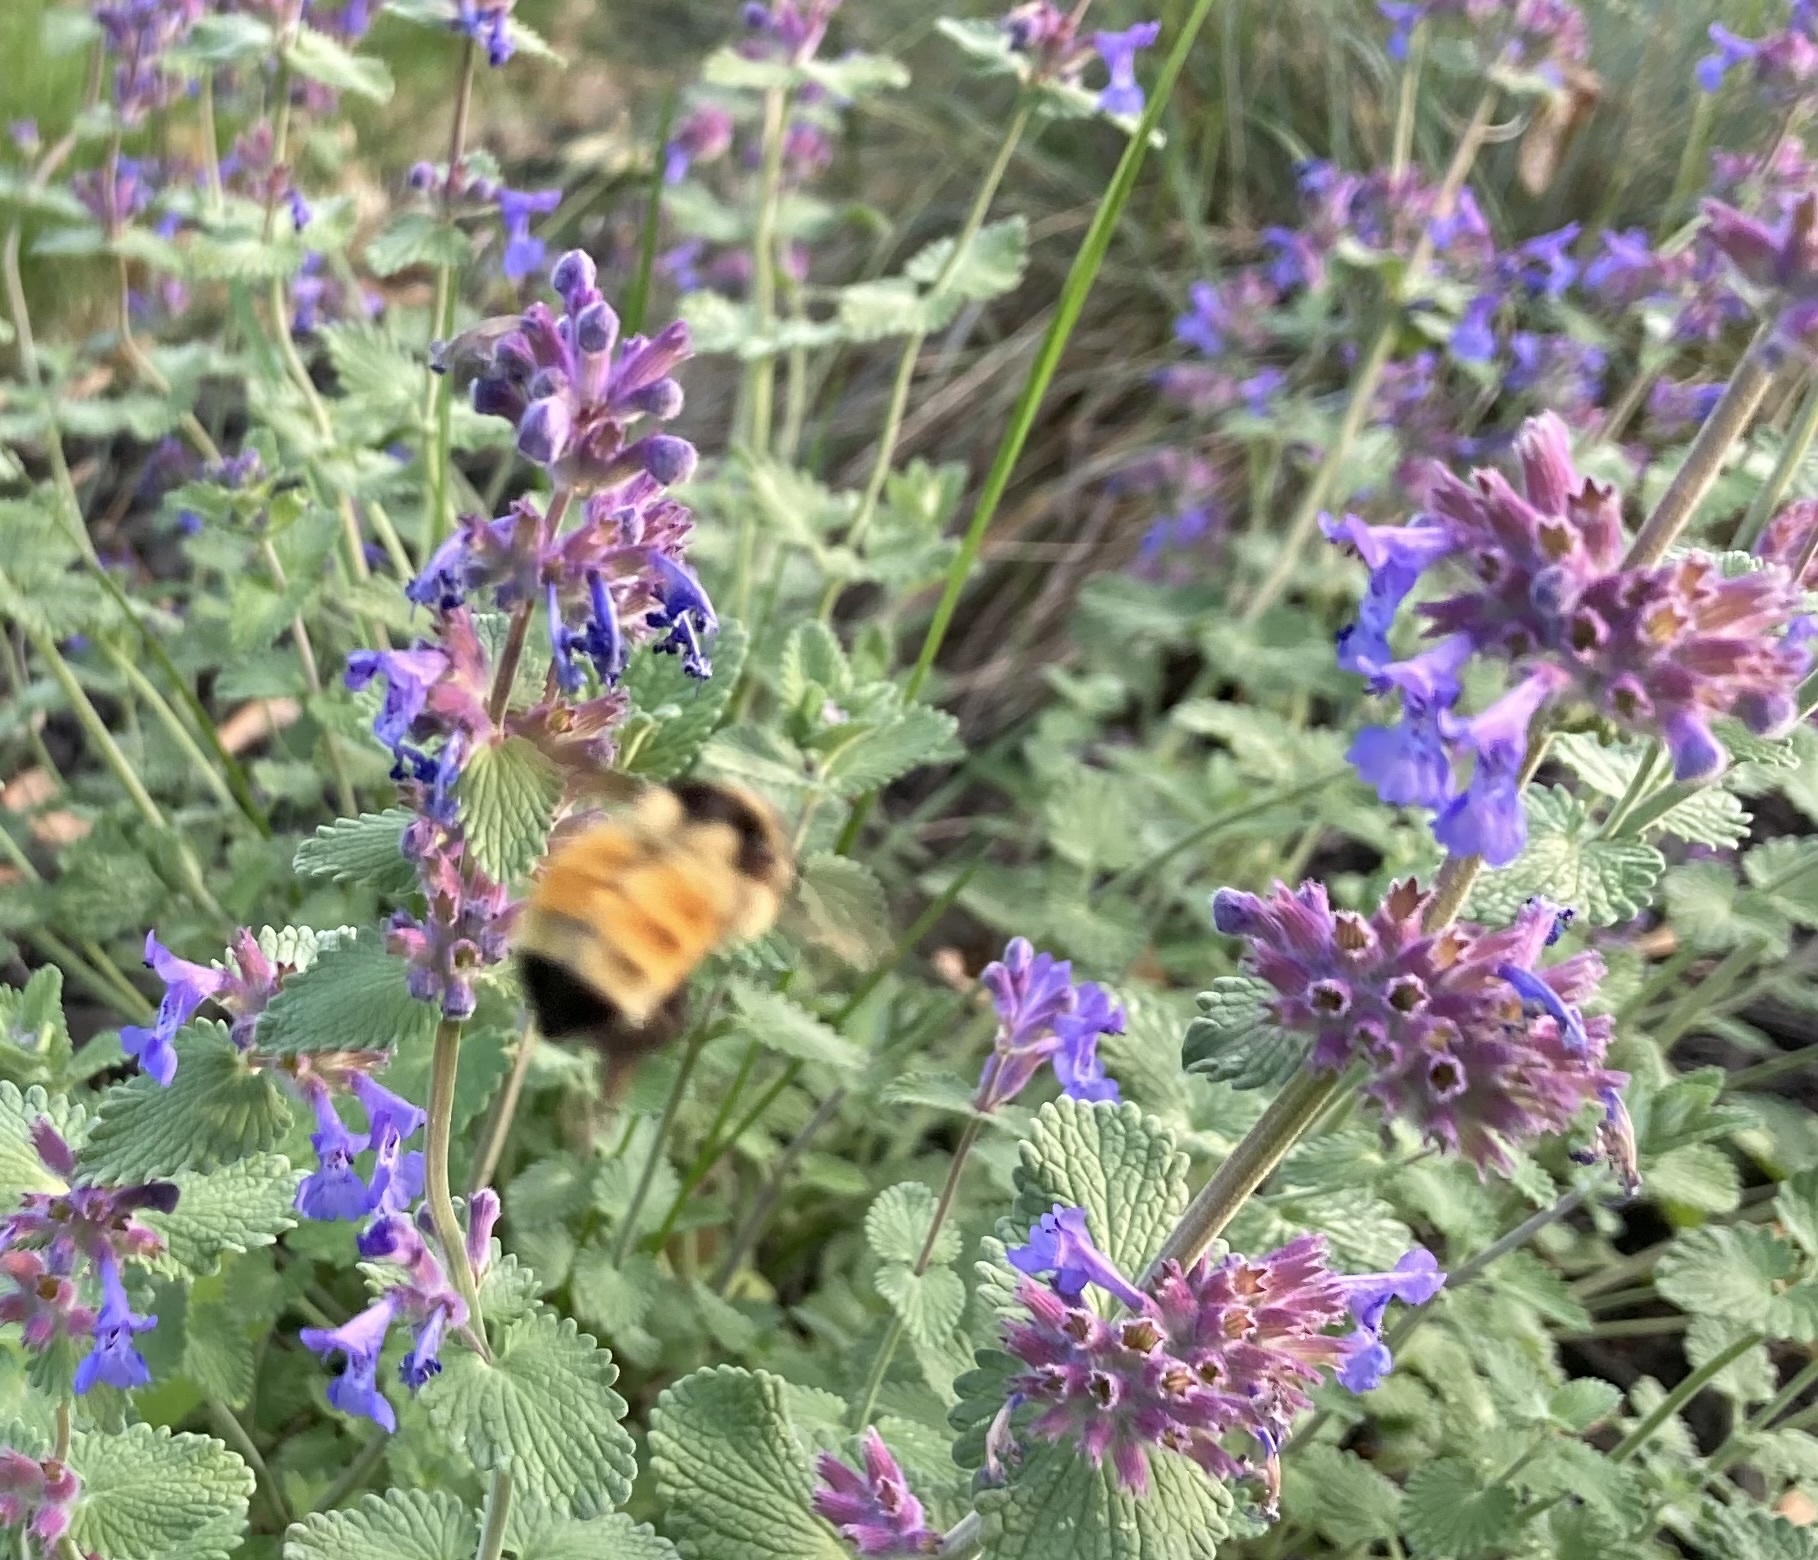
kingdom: Animalia
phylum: Arthropoda
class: Insecta
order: Hymenoptera
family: Apidae
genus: Bombus
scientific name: Bombus ternarius
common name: Tri-colored bumble bee
